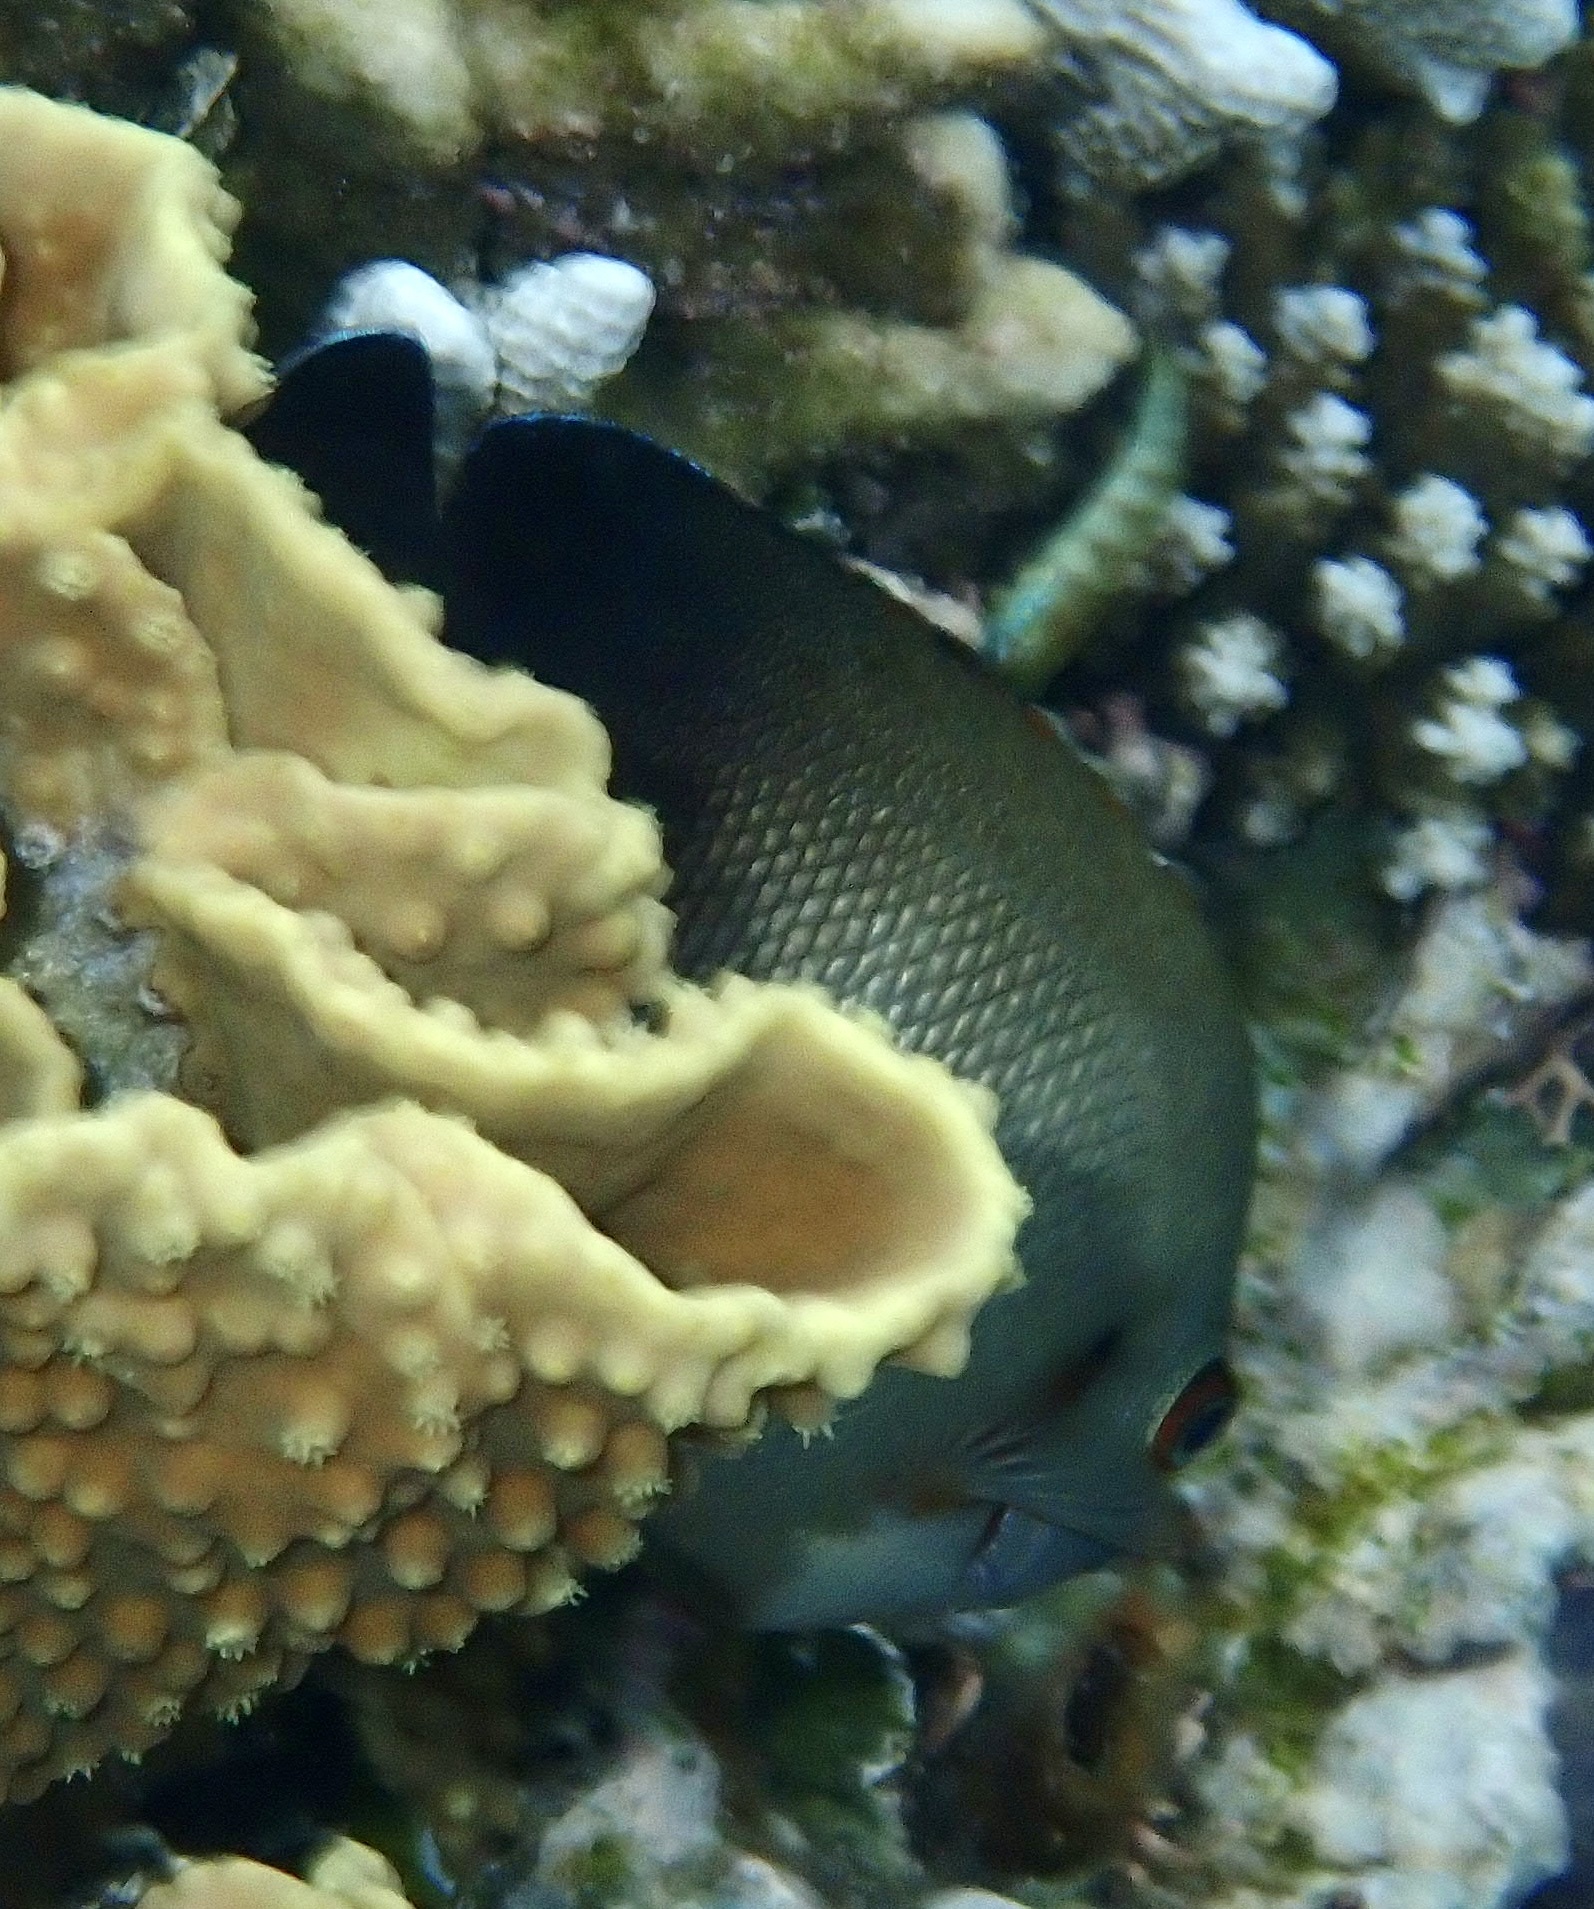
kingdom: Animalia
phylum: Chordata
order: Perciformes
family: Pomacanthidae
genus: Centropyge
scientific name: Centropyge vrolikii
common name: Pearlscale angelfish
